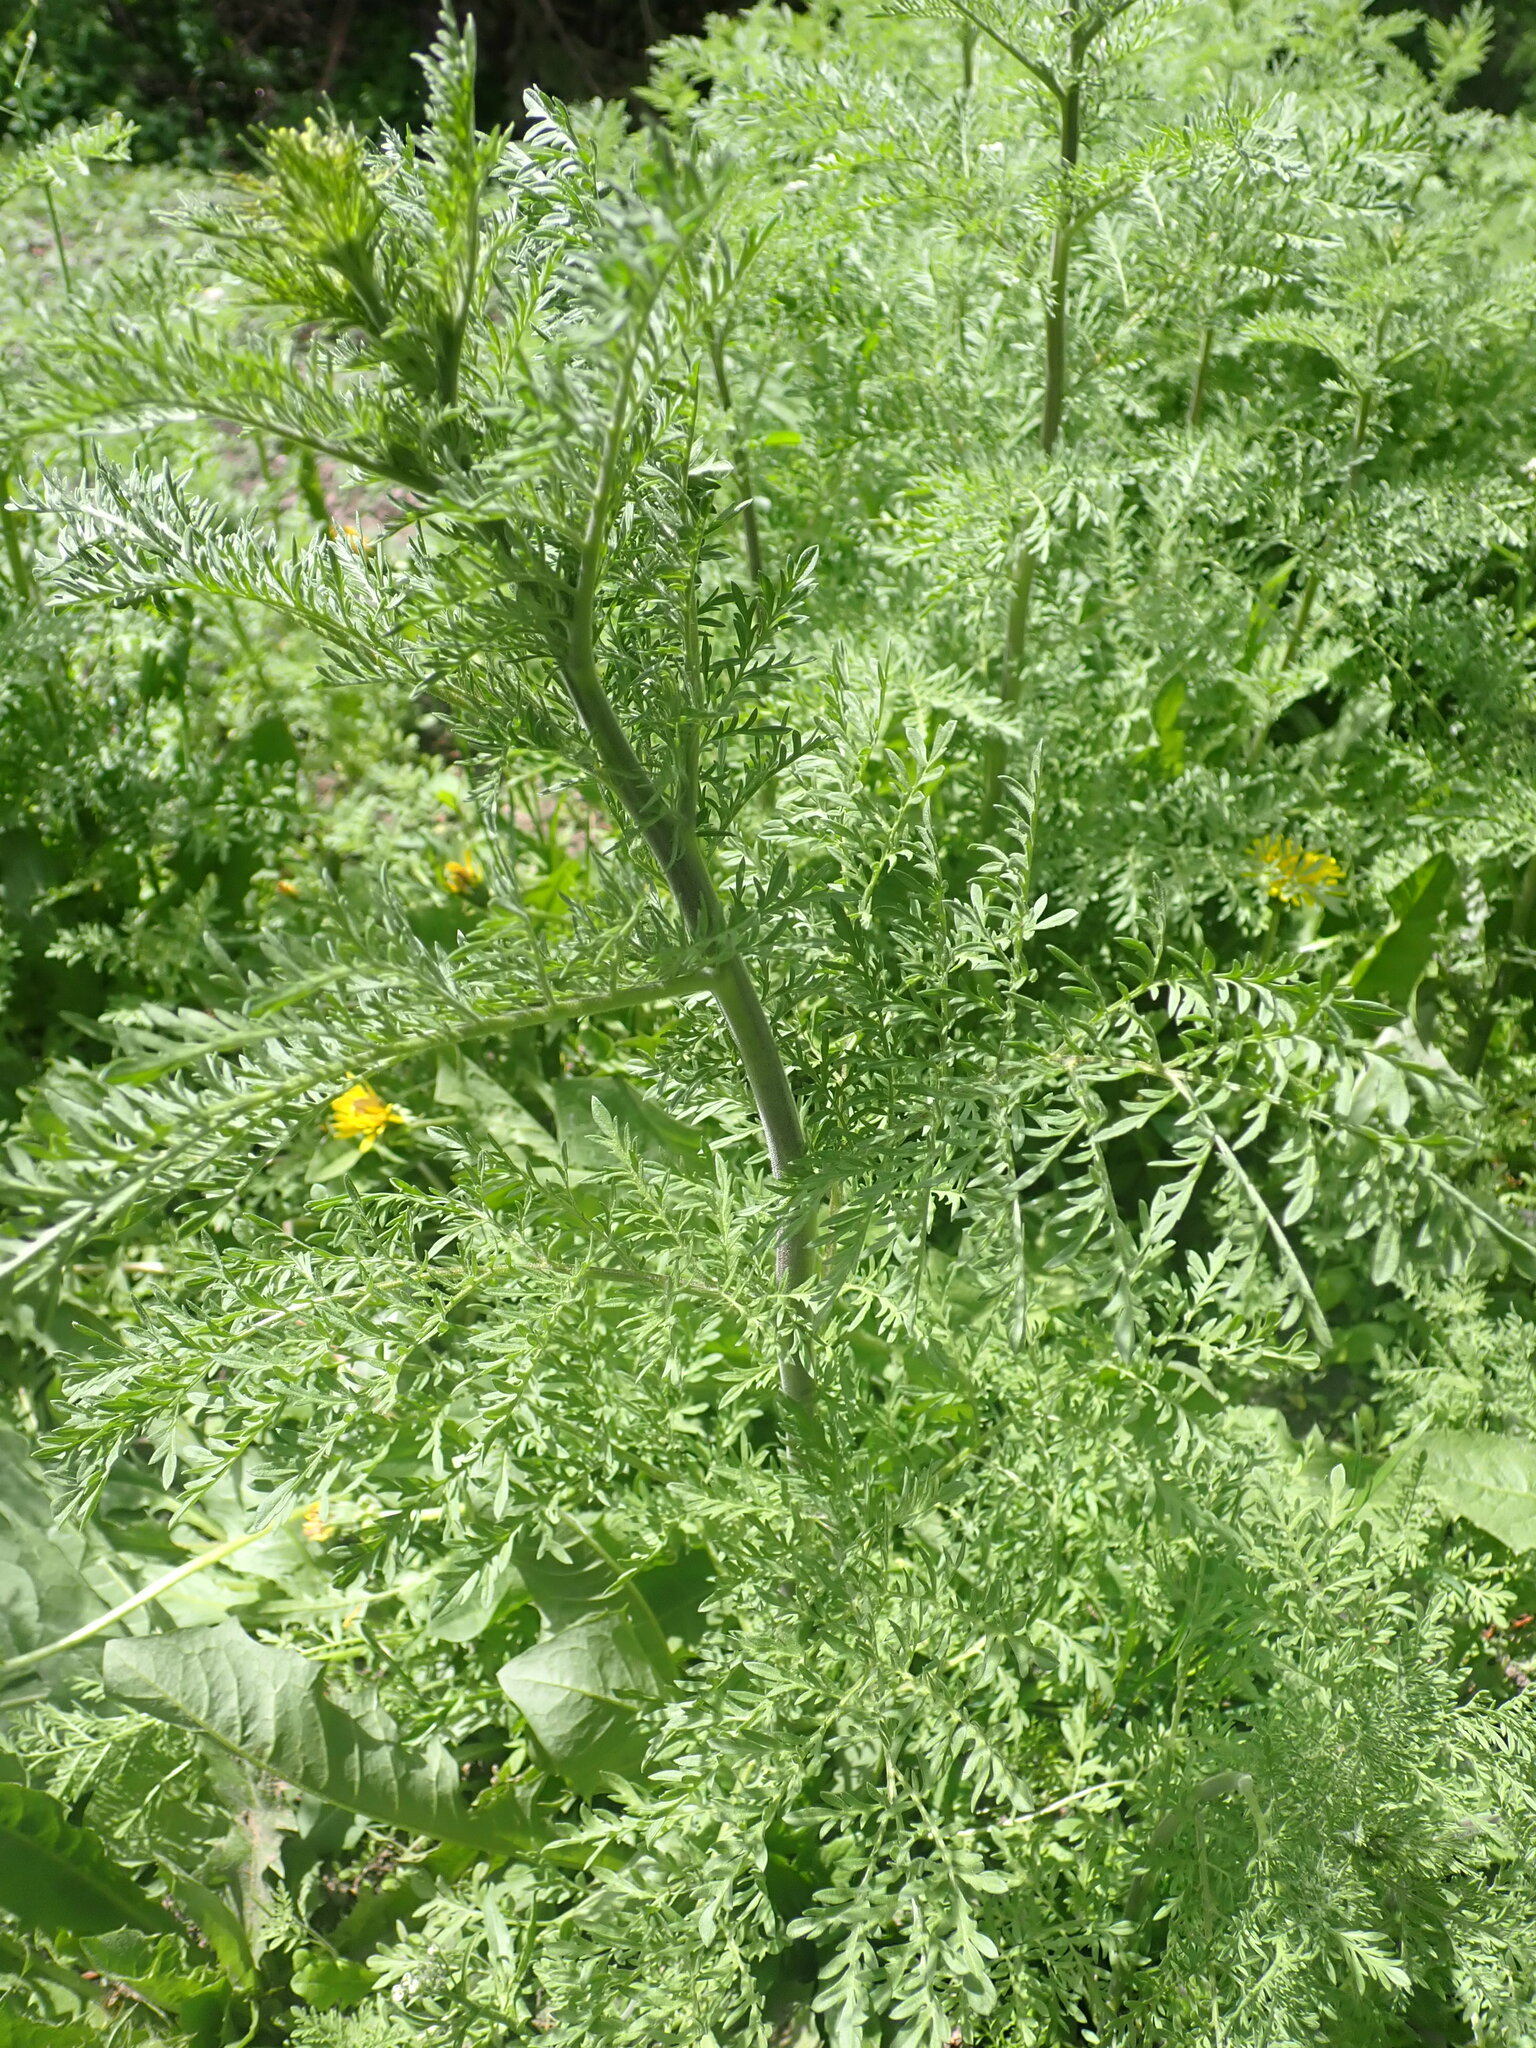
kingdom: Plantae
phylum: Tracheophyta
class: Magnoliopsida
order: Brassicales
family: Brassicaceae
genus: Descurainia
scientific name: Descurainia sophia
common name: Flixweed
